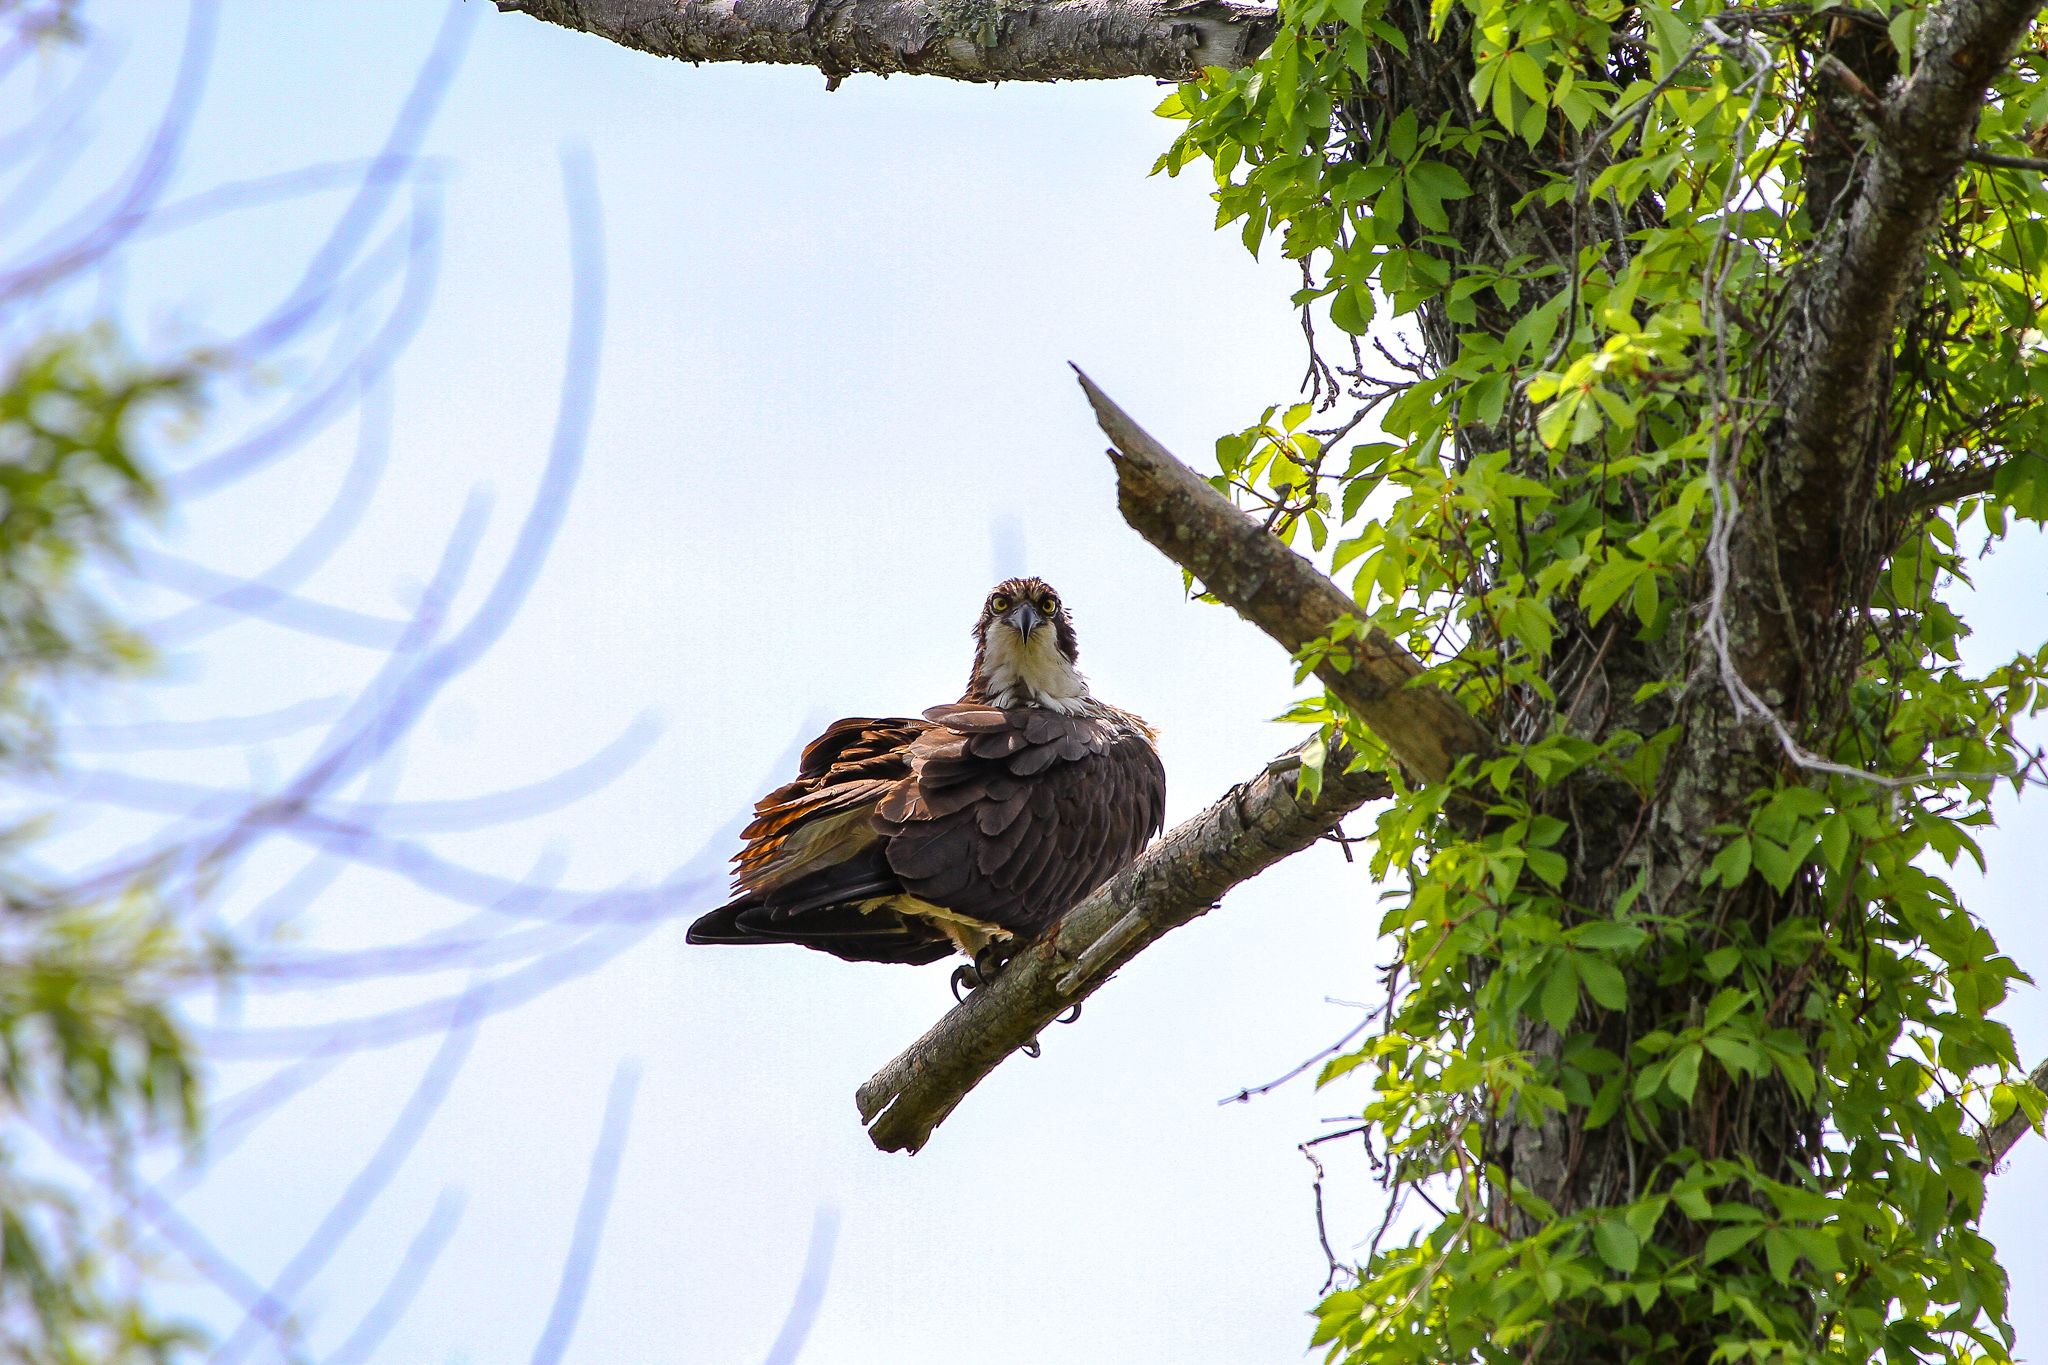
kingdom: Animalia
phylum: Chordata
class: Aves
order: Accipitriformes
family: Pandionidae
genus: Pandion
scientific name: Pandion haliaetus
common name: Osprey
